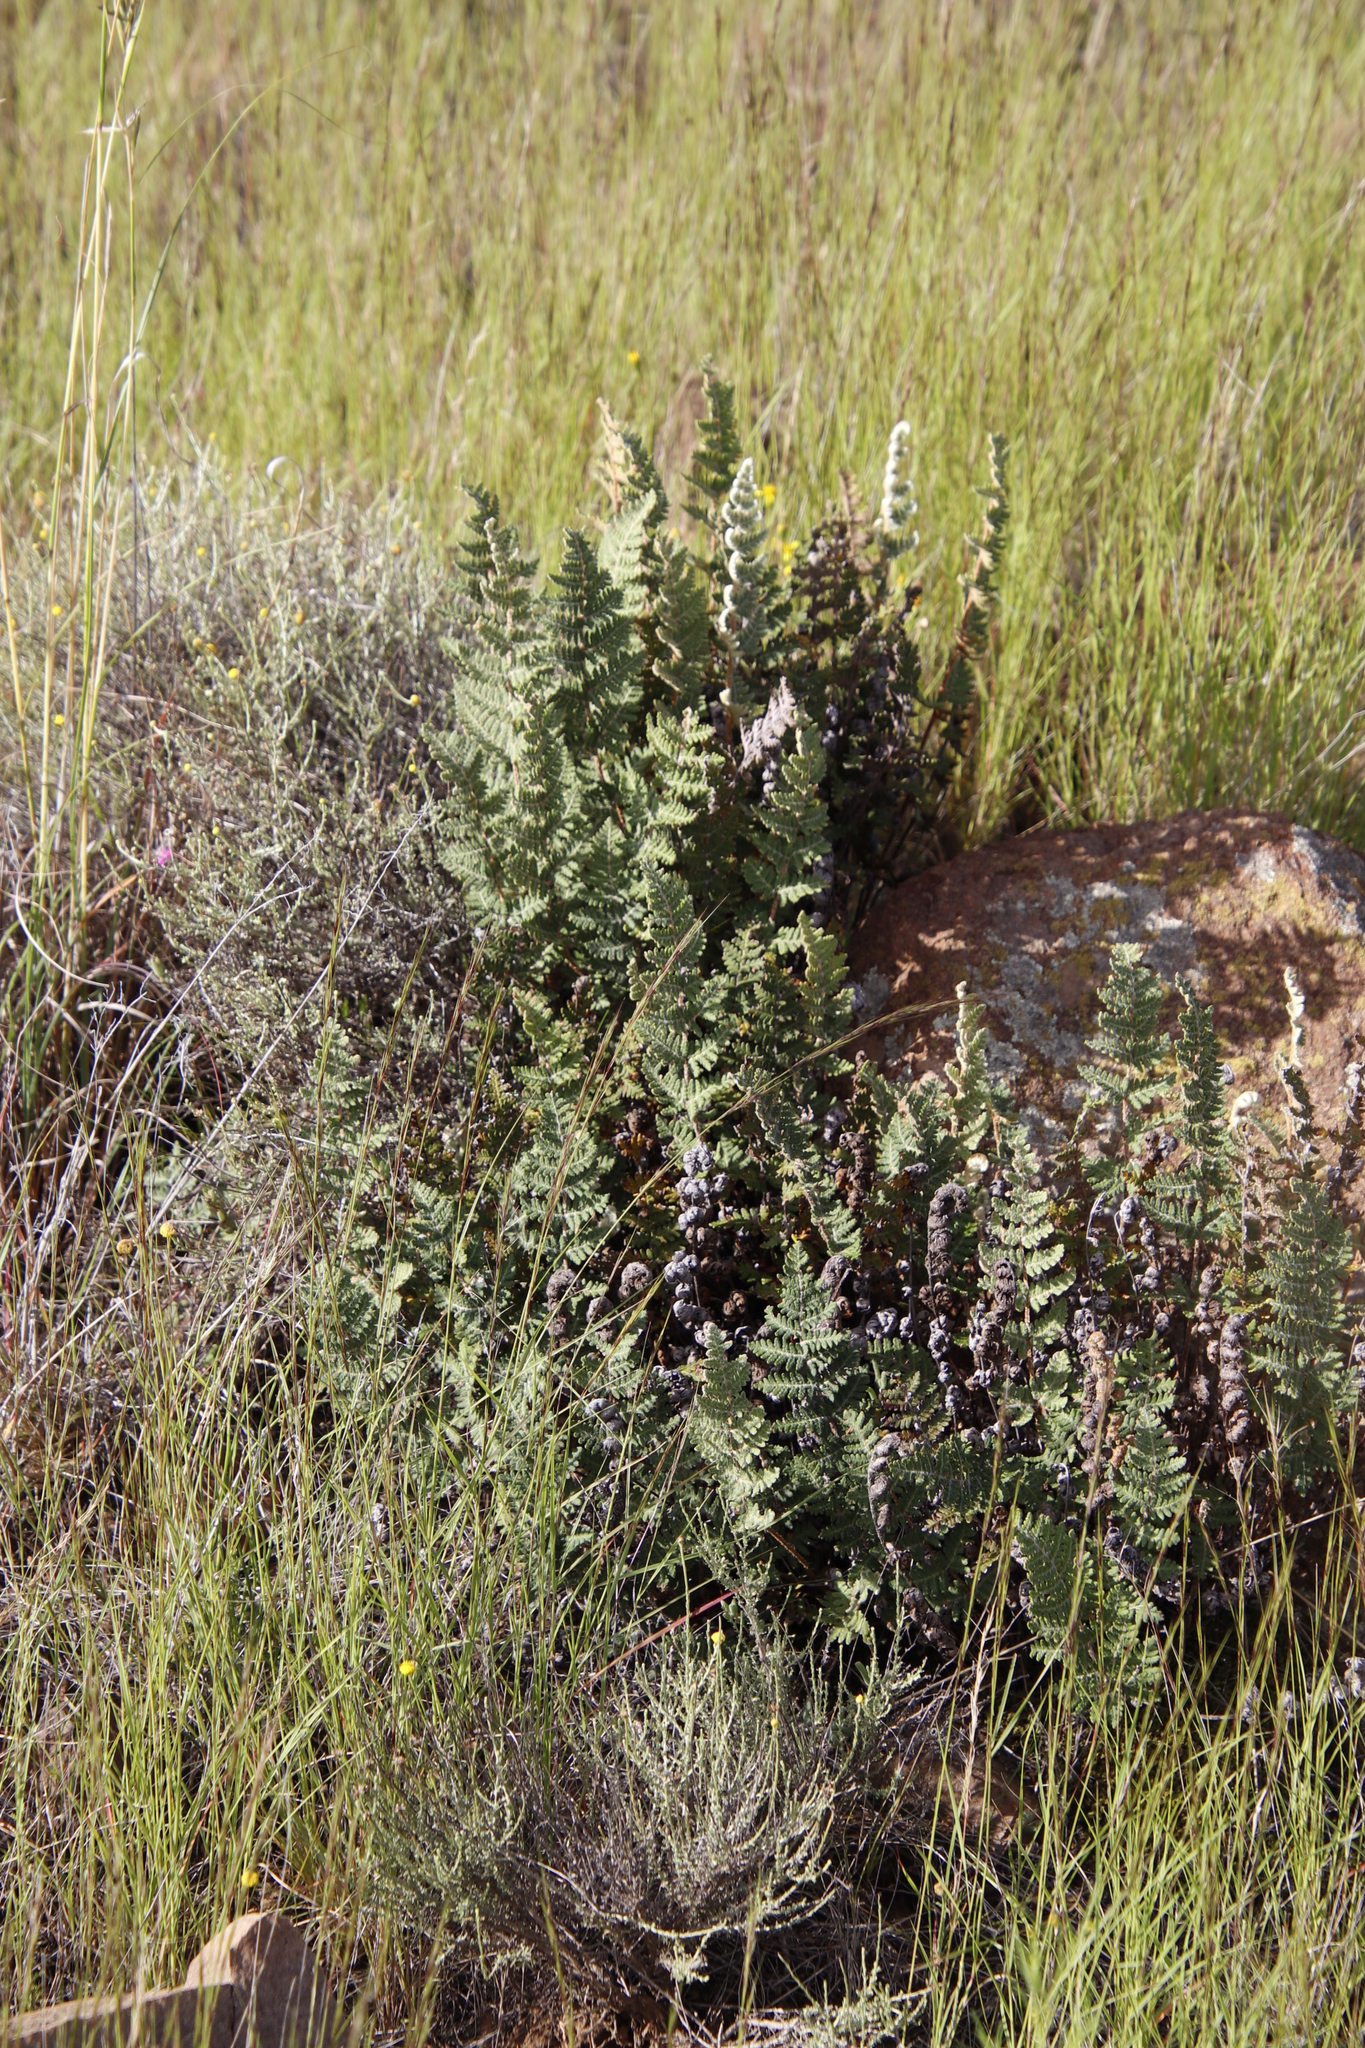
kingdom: Plantae
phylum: Tracheophyta
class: Polypodiopsida
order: Polypodiales
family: Pteridaceae
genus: Cheilanthes
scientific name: Cheilanthes eckloniana
